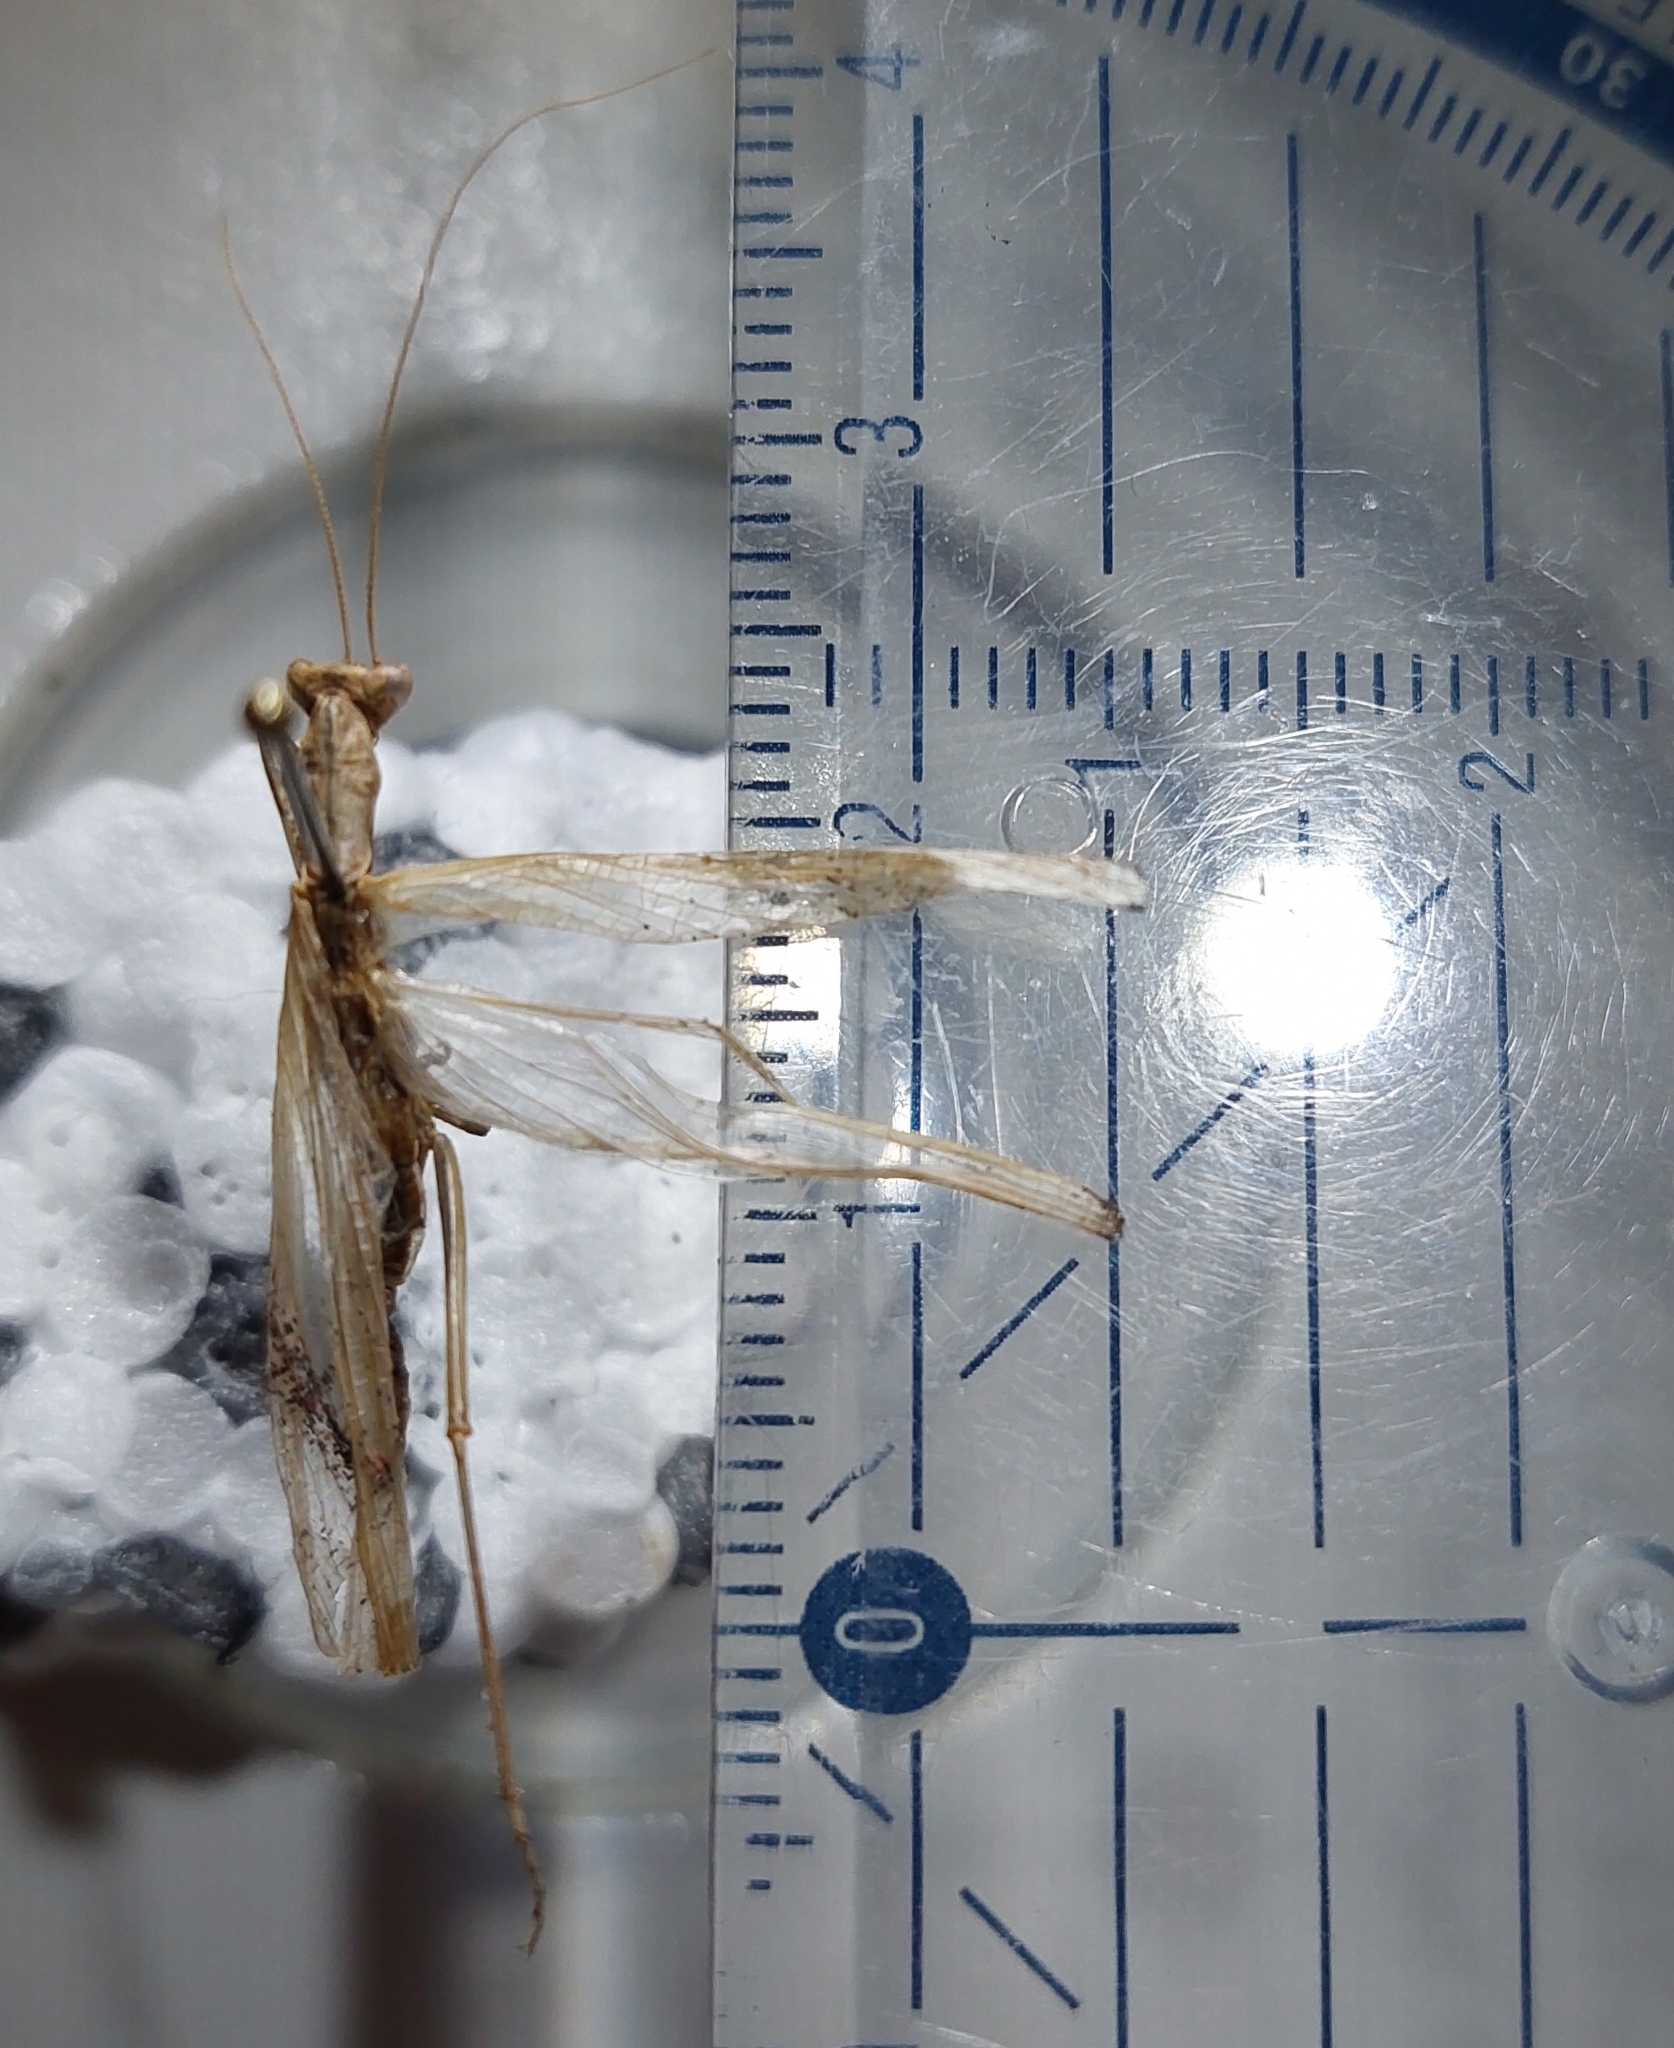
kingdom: Animalia
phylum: Arthropoda
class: Insecta
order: Mantodea
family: Amelidae
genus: Ameles
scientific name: Ameles decolor
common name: Dwarf mantis
